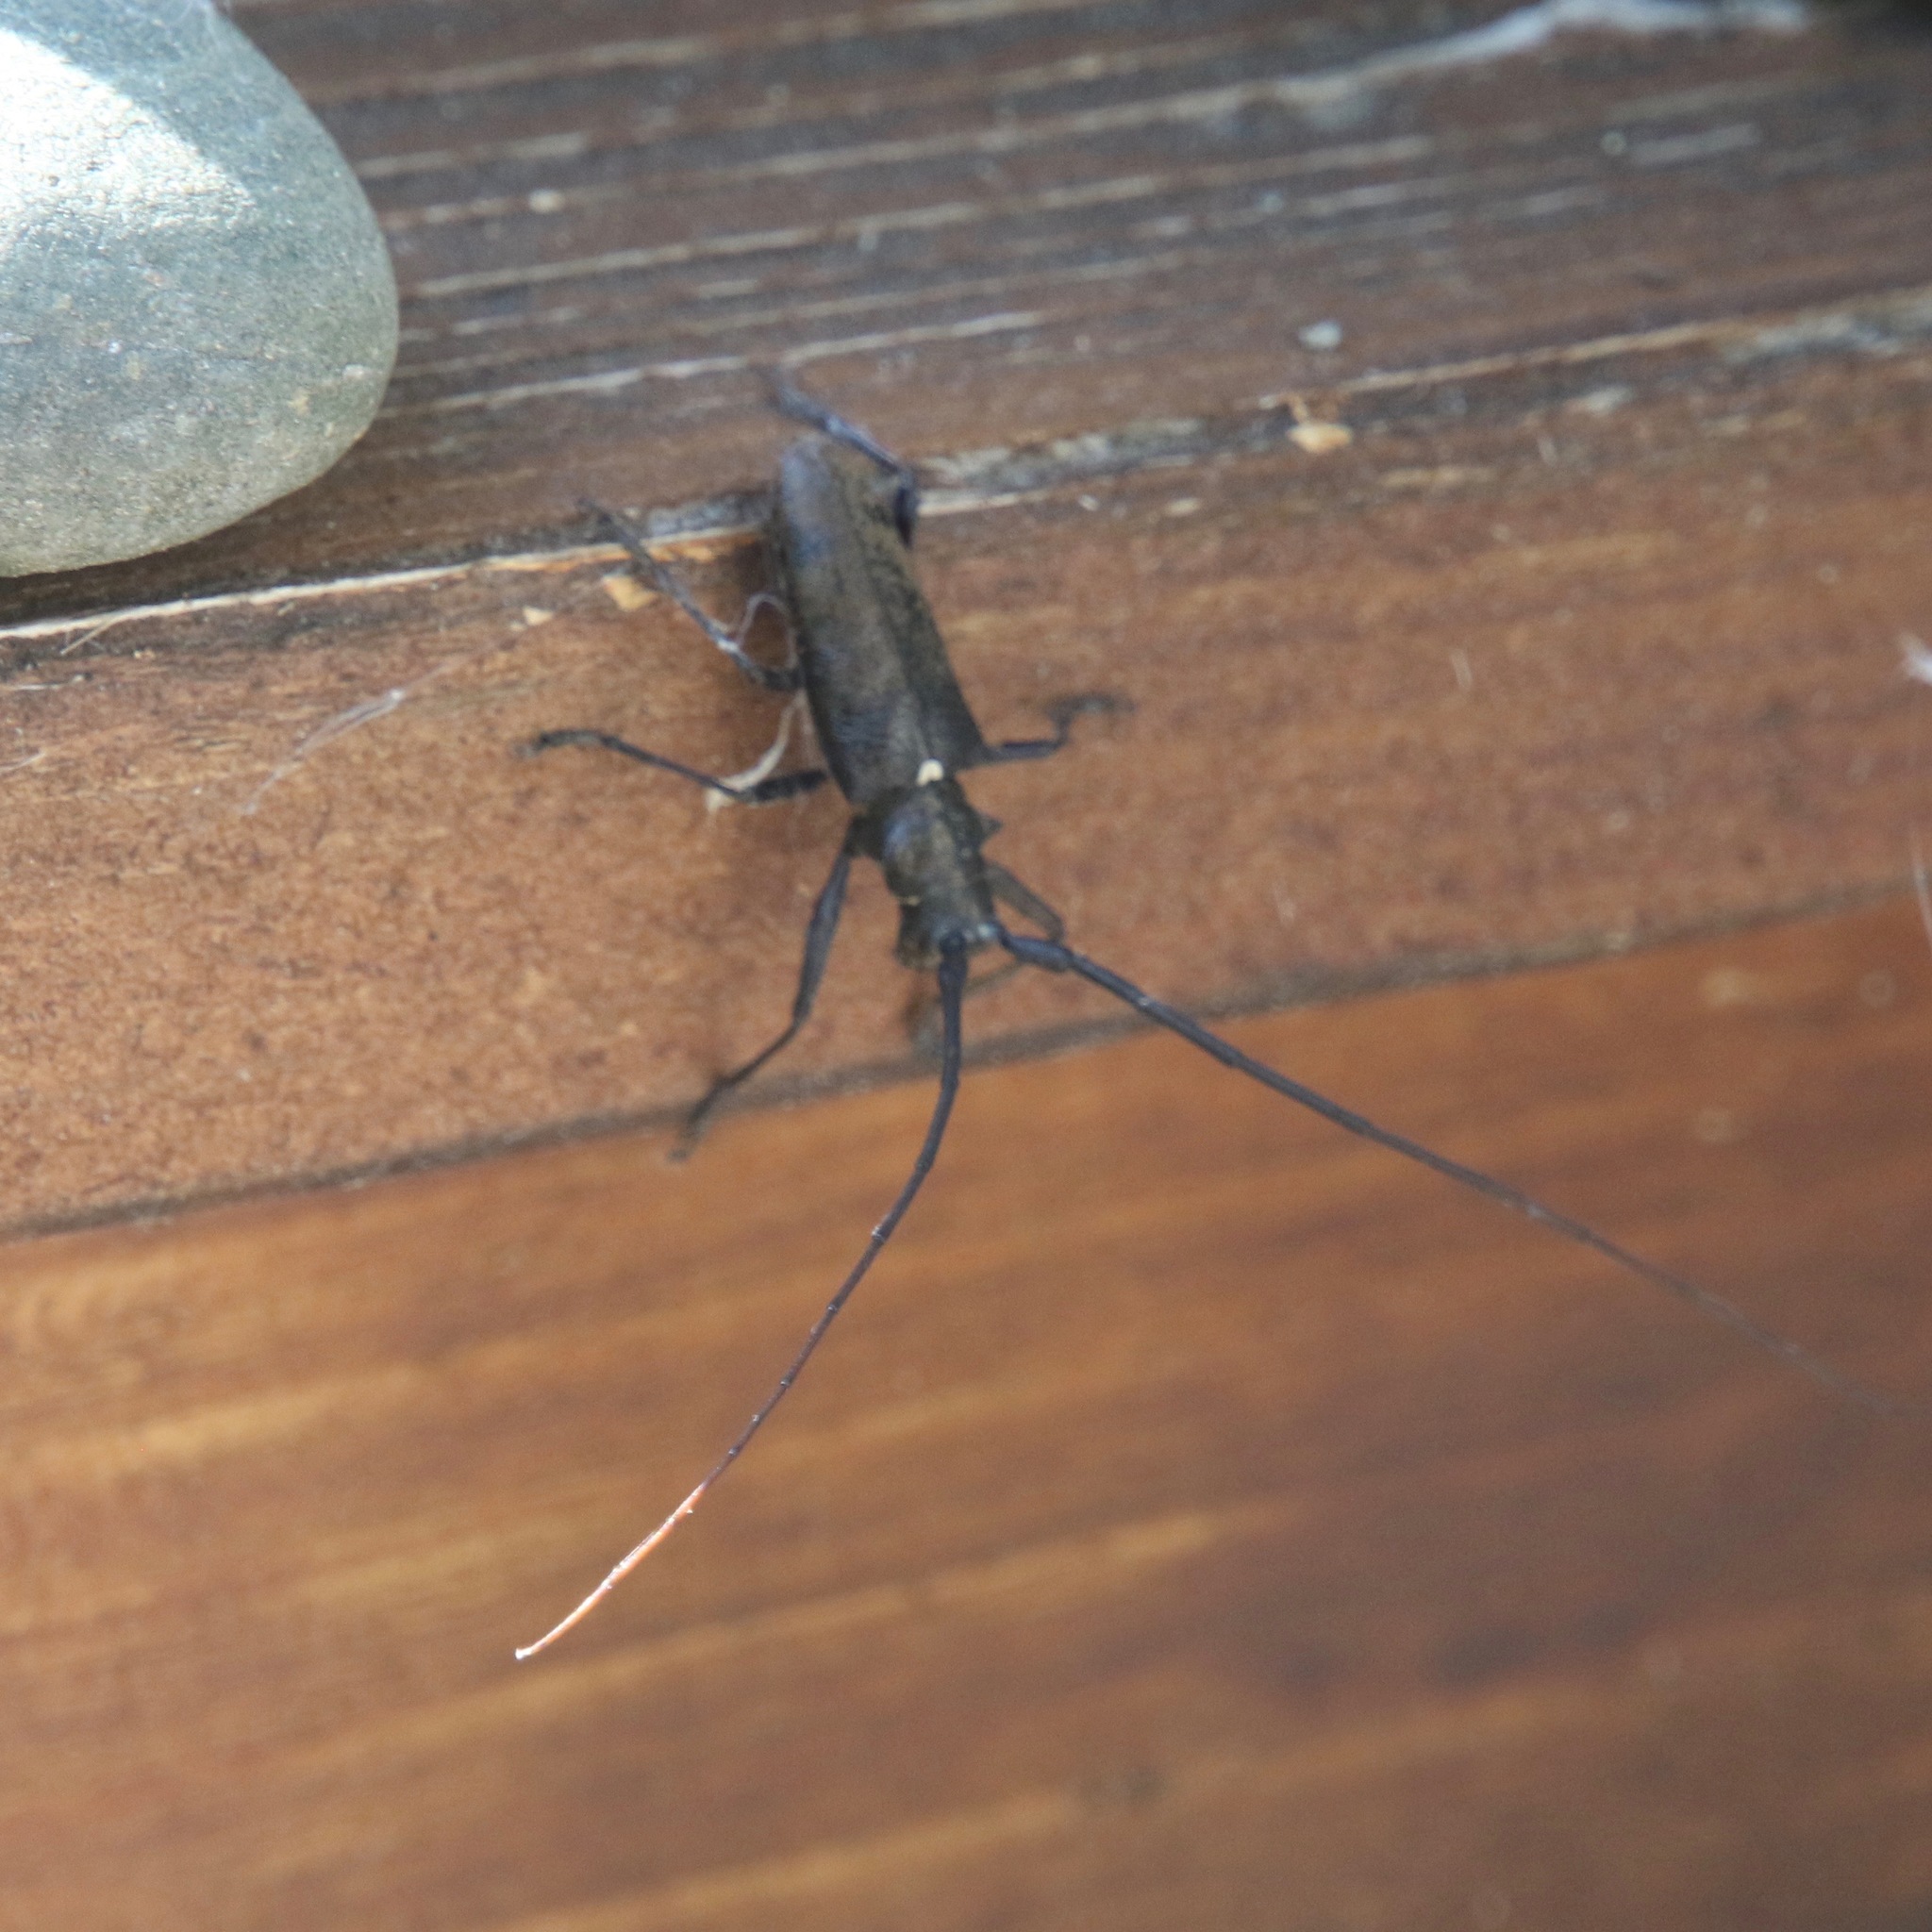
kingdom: Animalia
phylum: Arthropoda
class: Insecta
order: Coleoptera
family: Cerambycidae
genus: Monochamus
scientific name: Monochamus scutellatus
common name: White-spotted sawyer beetle
